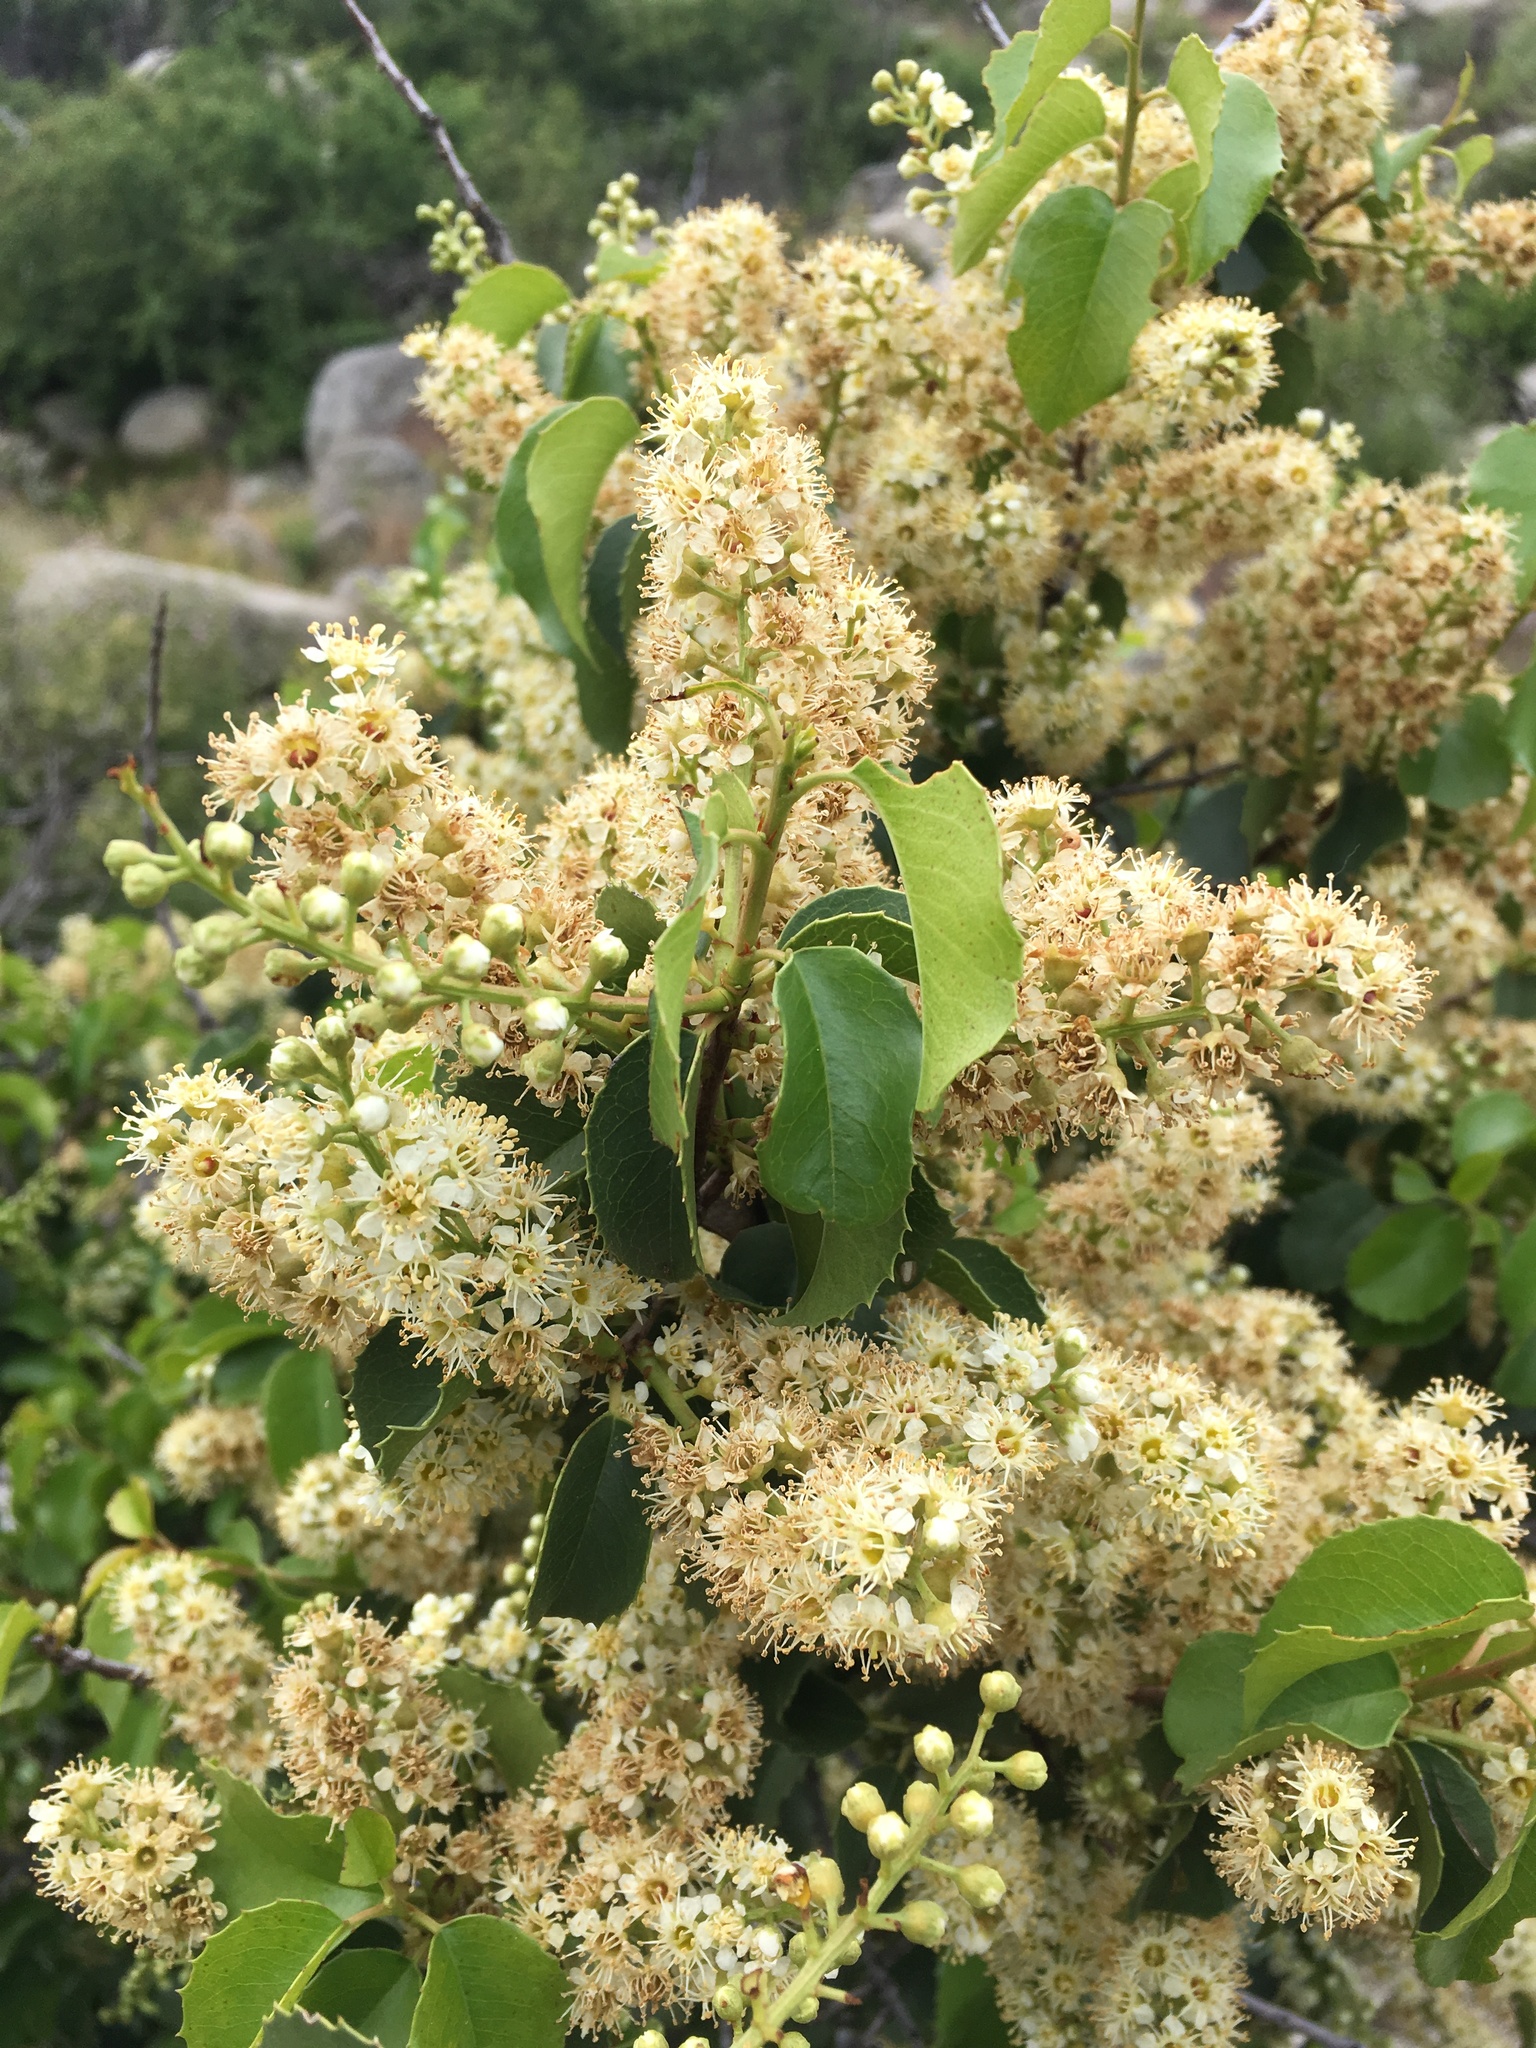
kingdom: Plantae
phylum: Tracheophyta
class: Magnoliopsida
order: Rosales
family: Rosaceae
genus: Prunus
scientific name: Prunus ilicifolia
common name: Hollyleaf cherry
